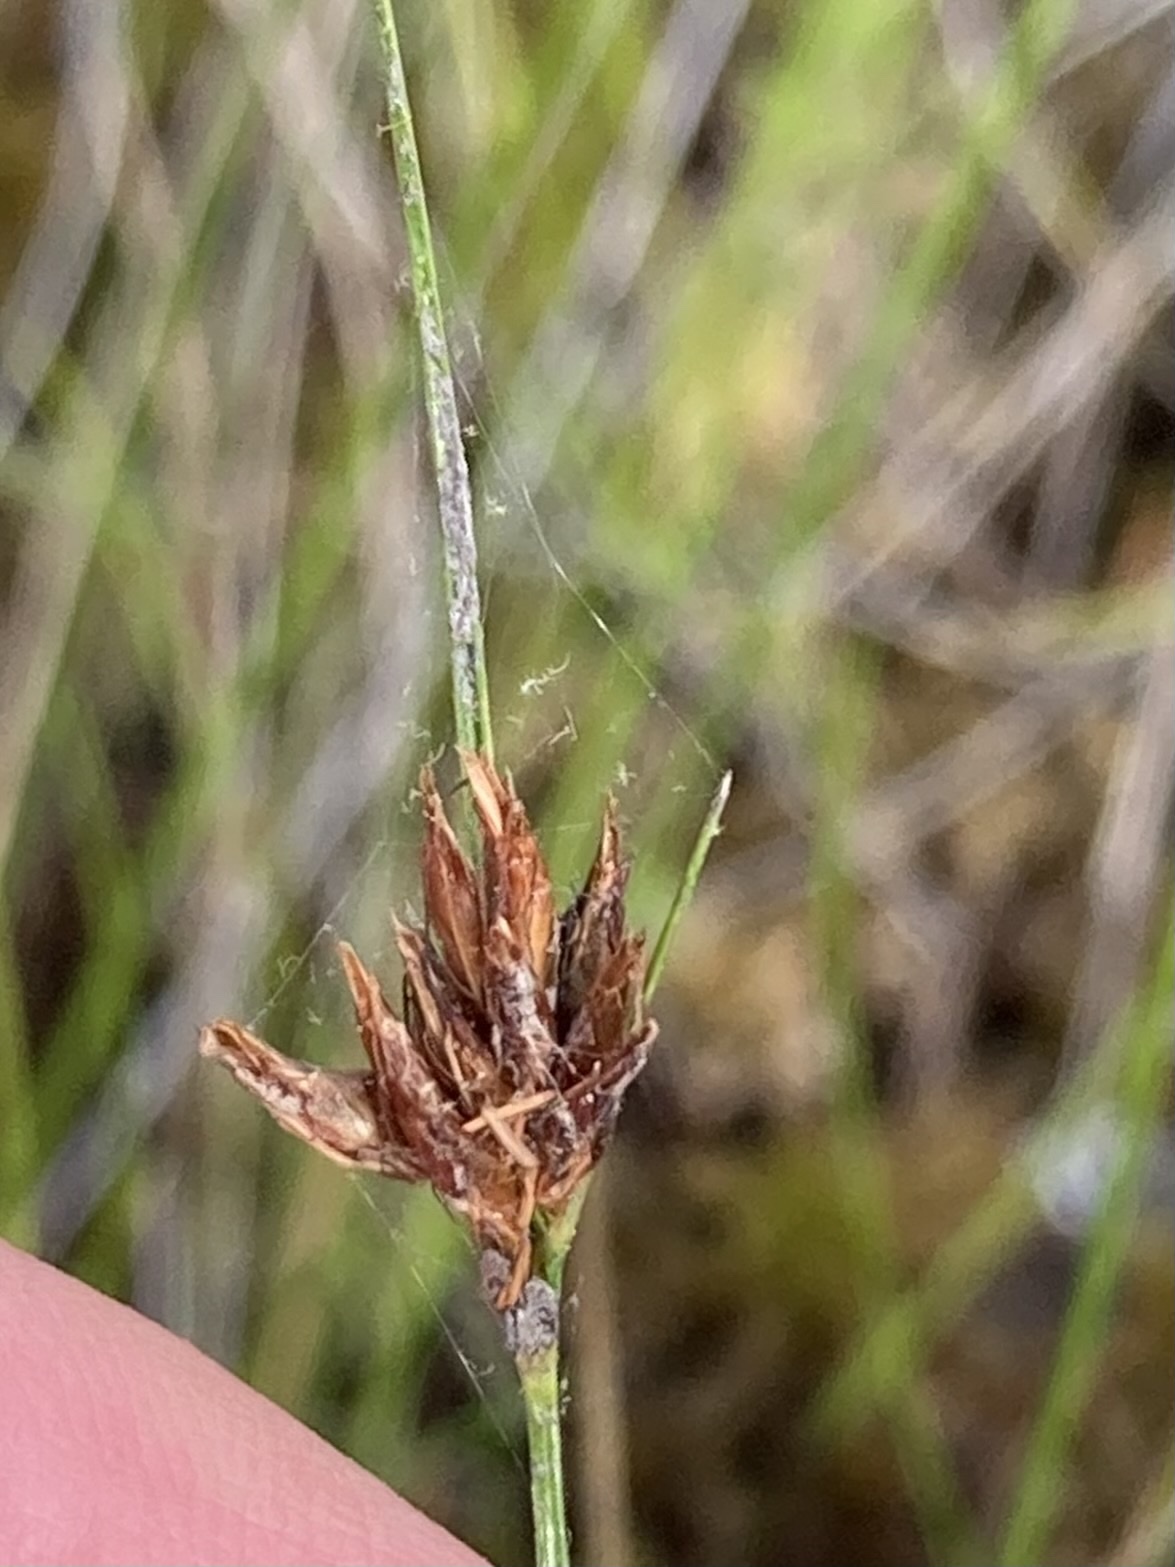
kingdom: Plantae
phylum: Tracheophyta
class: Liliopsida
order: Poales
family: Cyperaceae
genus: Rhynchospora
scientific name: Rhynchospora capitellata
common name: Brownish beaksedge
